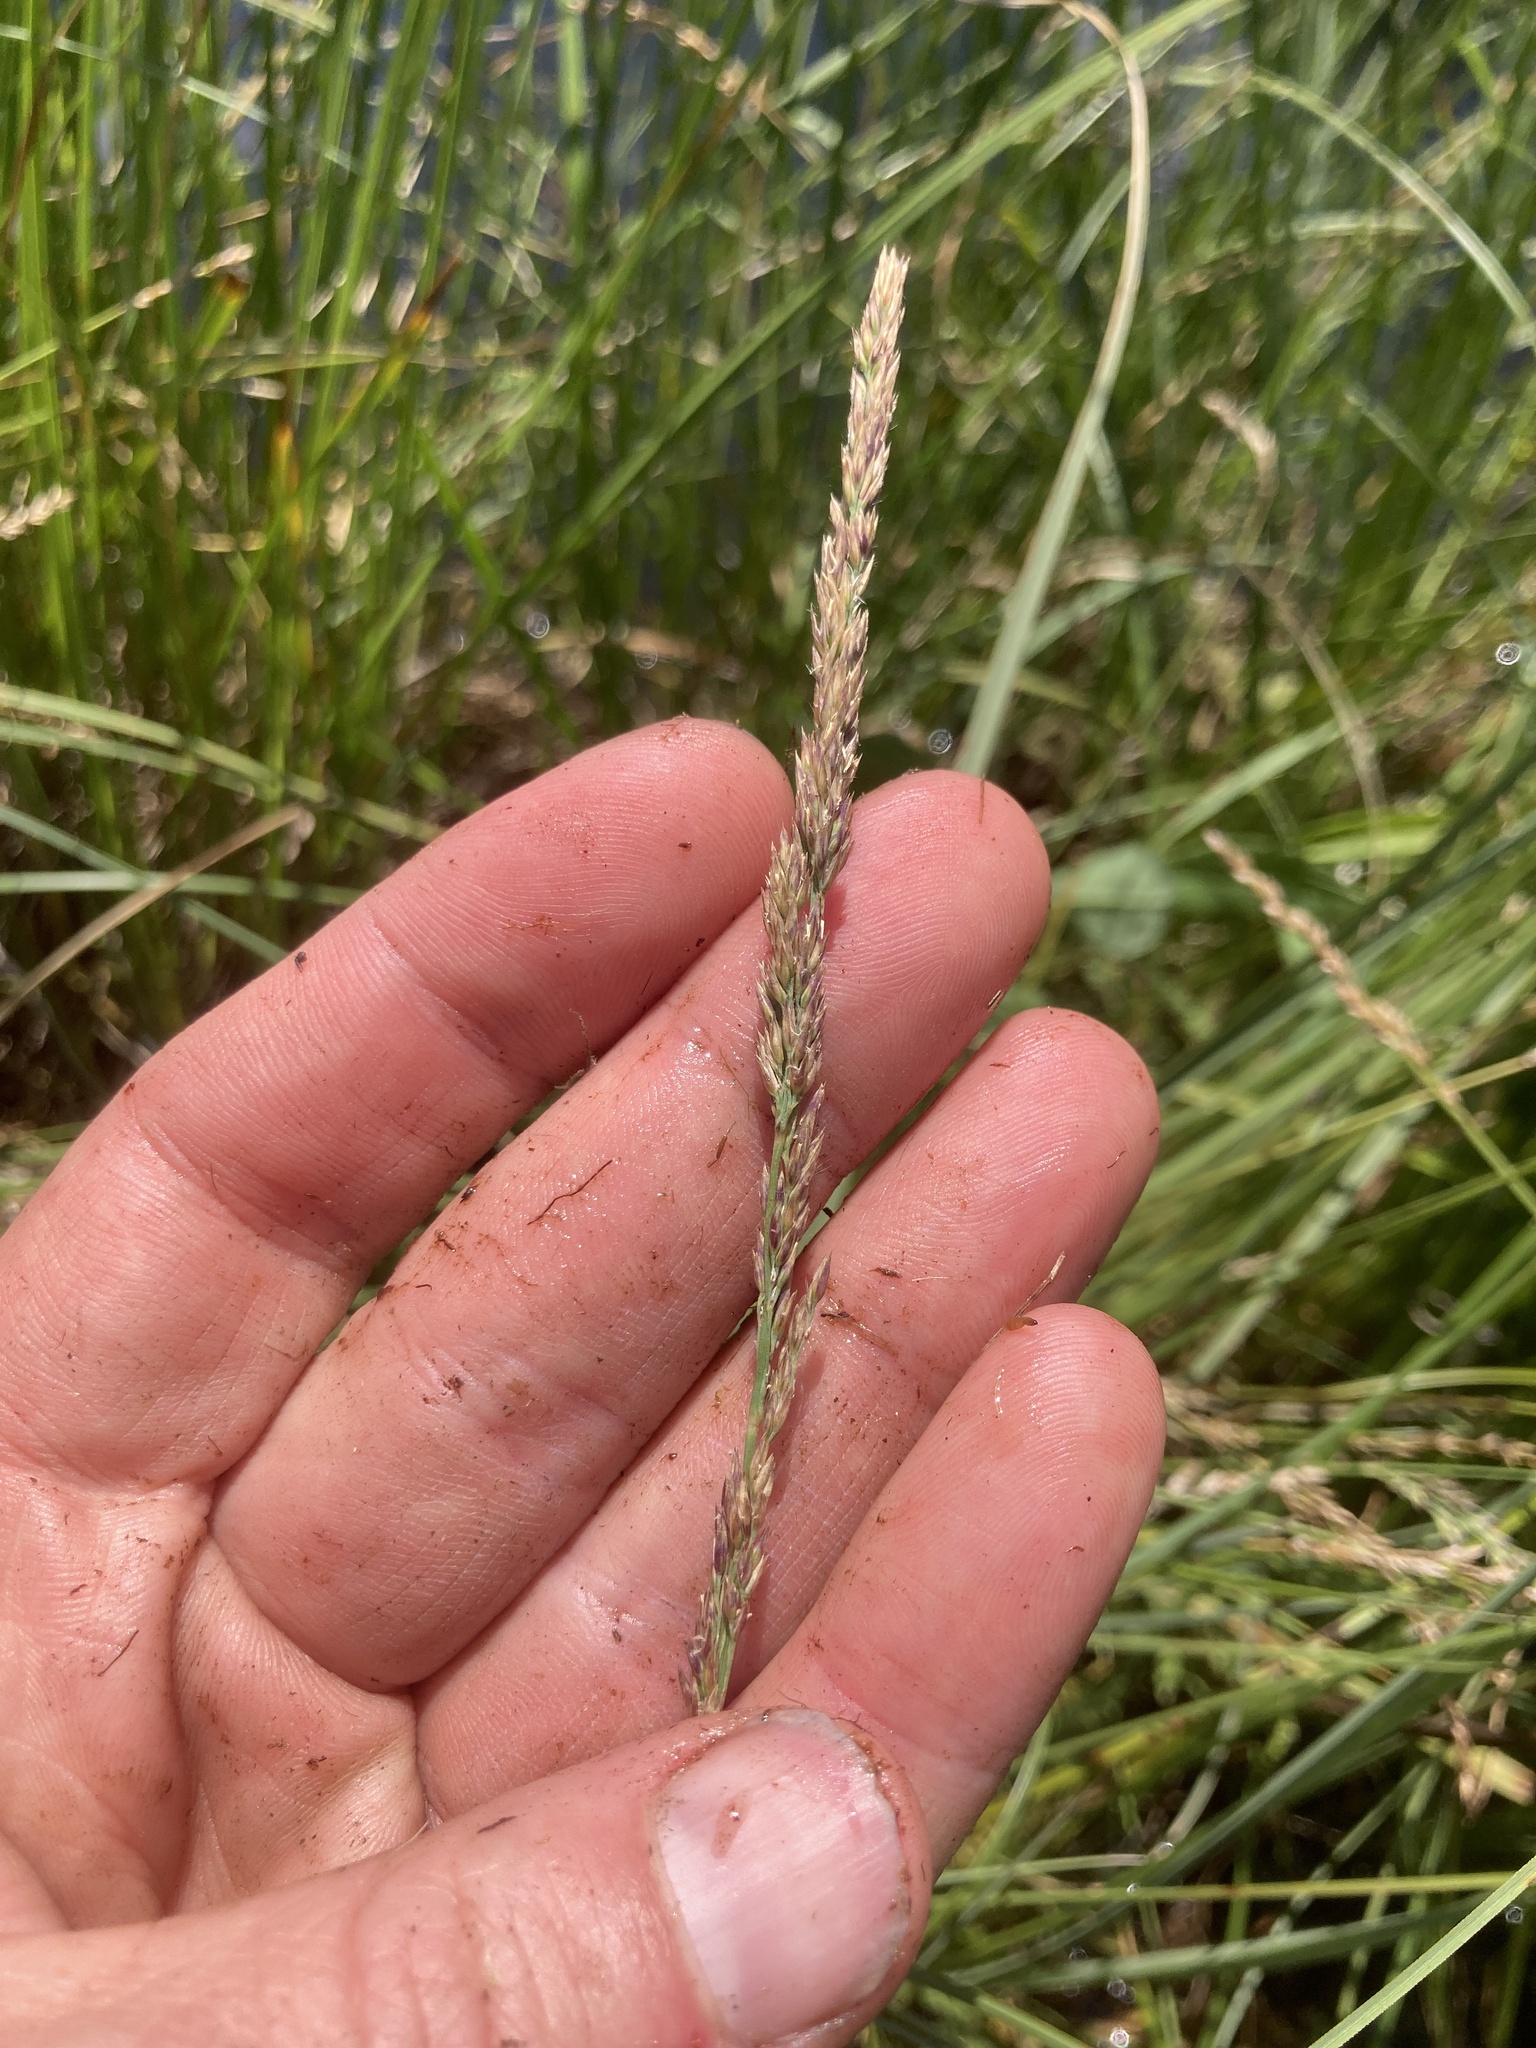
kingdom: Plantae
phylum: Tracheophyta
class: Liliopsida
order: Poales
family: Poaceae
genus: Calamagrostis
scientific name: Calamagrostis stricta
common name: Narrow small-reed
